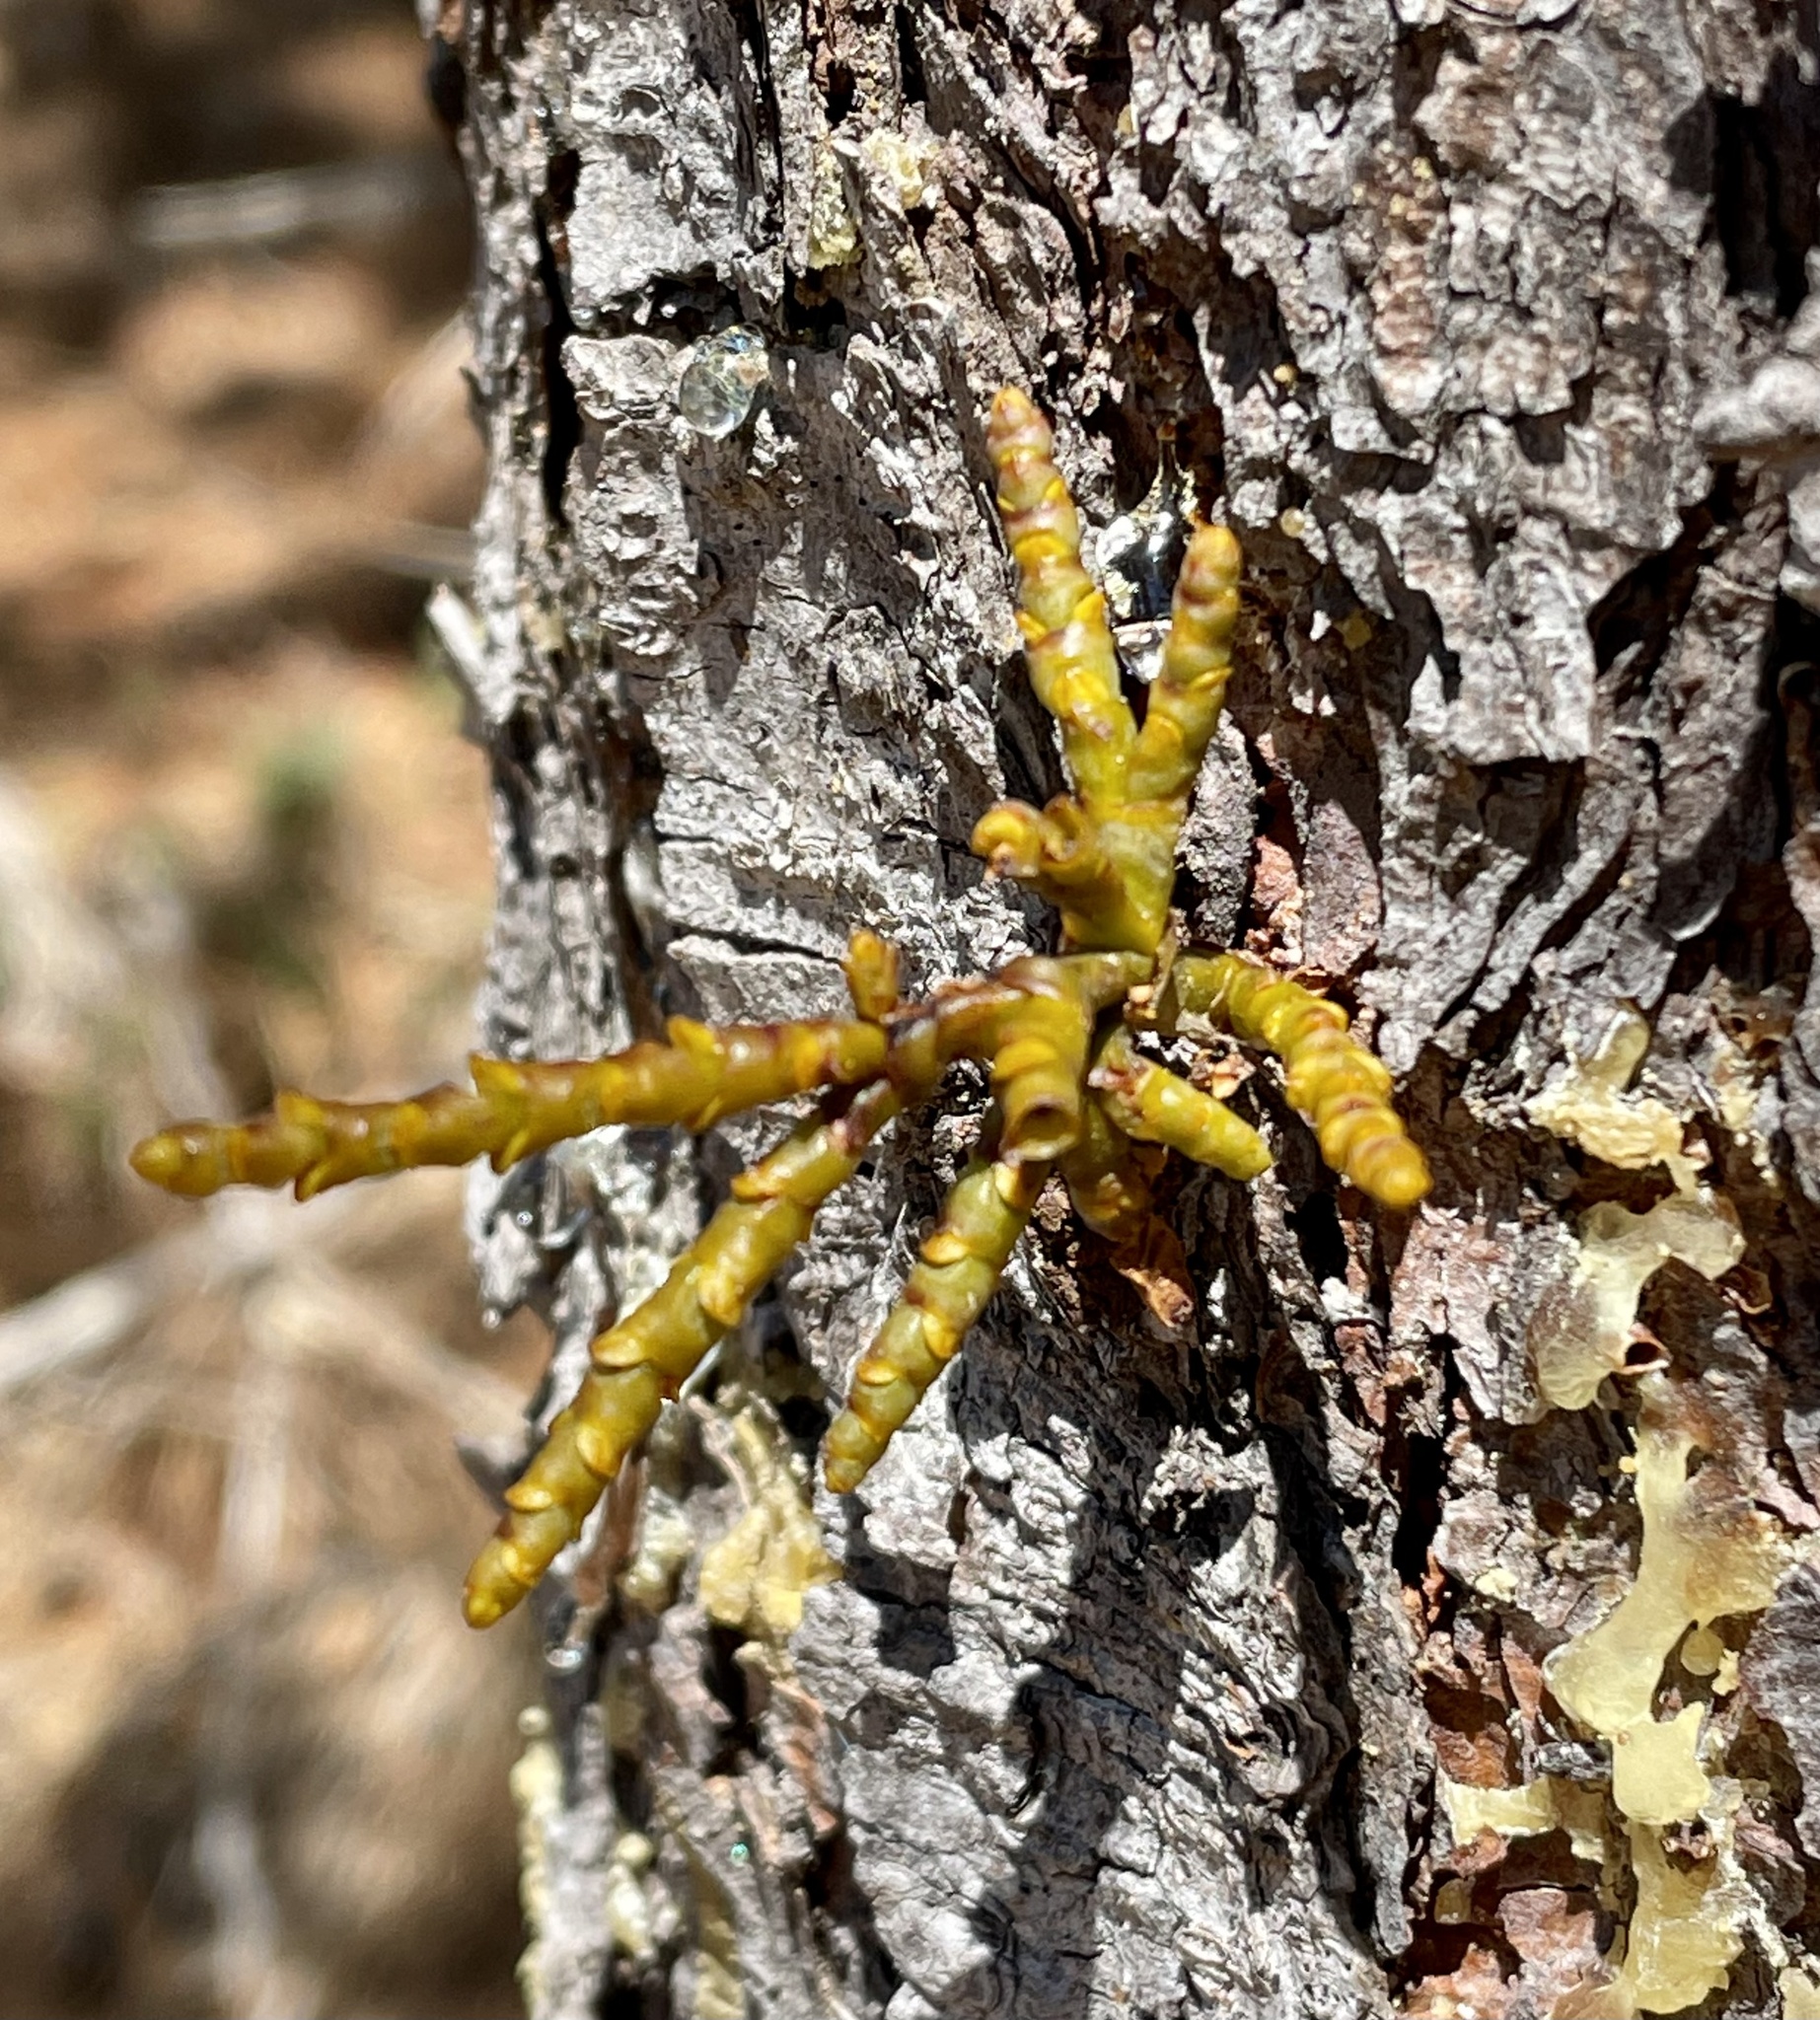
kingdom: Plantae
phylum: Tracheophyta
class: Magnoliopsida
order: Santalales
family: Viscaceae
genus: Arceuthobium
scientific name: Arceuthobium campylopodum
